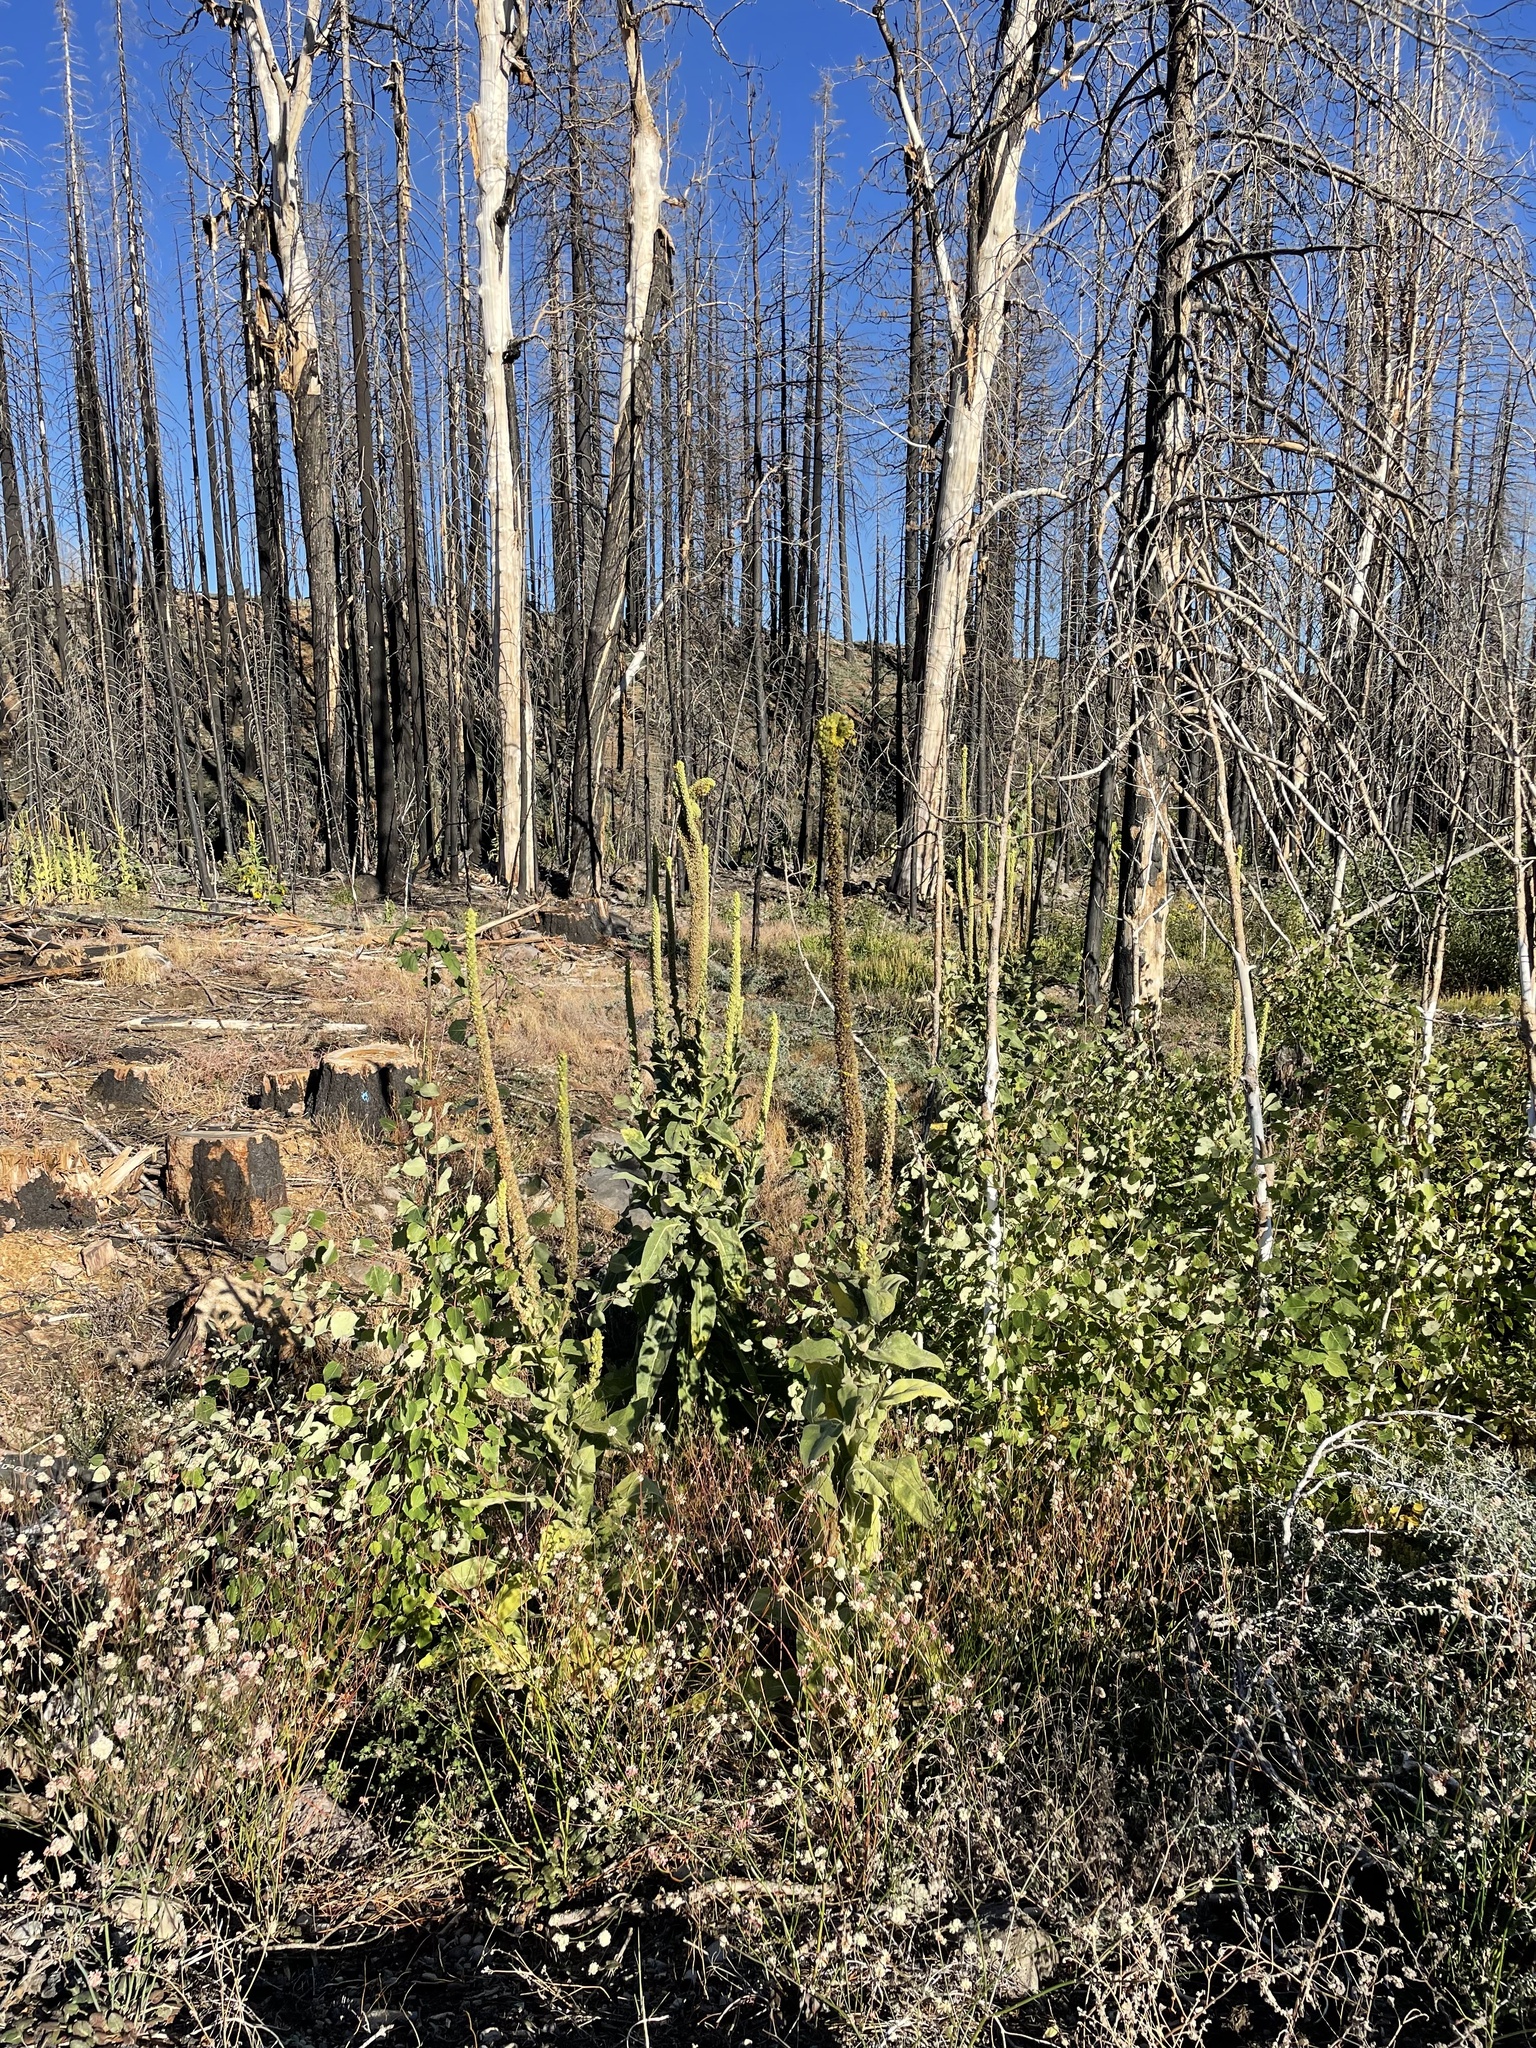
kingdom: Plantae
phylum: Tracheophyta
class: Magnoliopsida
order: Lamiales
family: Scrophulariaceae
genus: Verbascum
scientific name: Verbascum thapsus
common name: Common mullein
